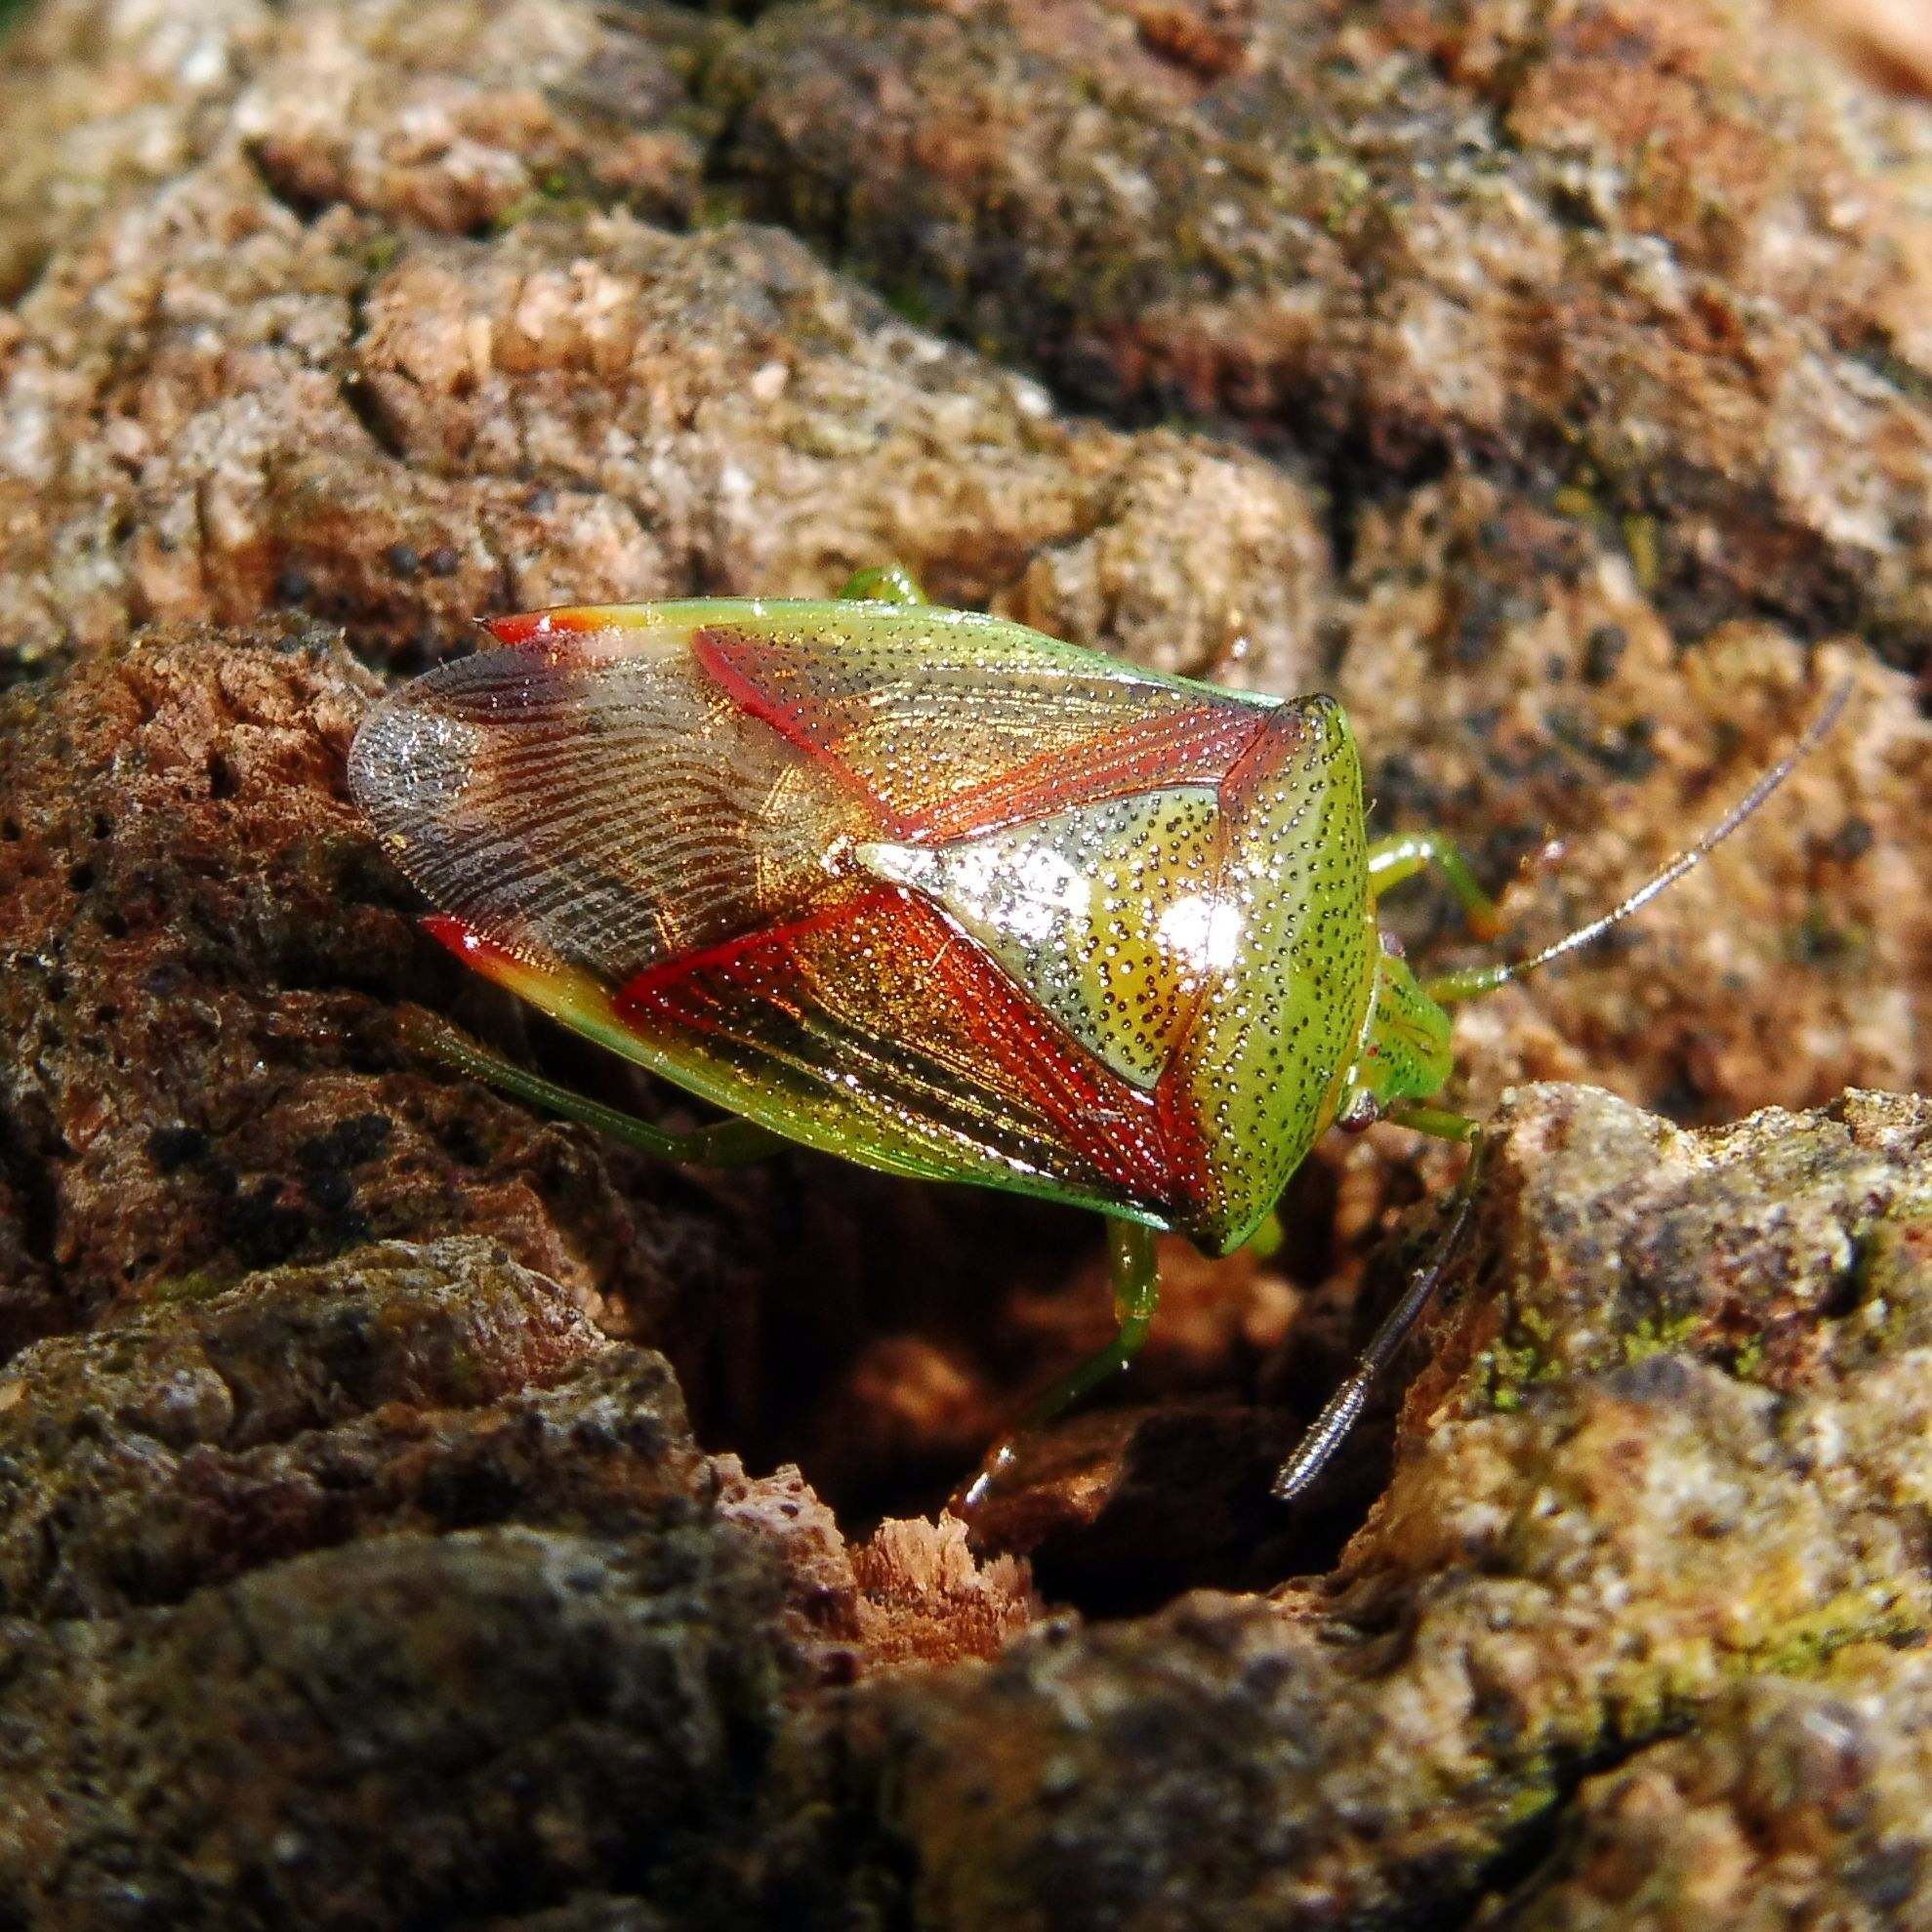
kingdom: Animalia
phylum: Arthropoda
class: Insecta
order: Hemiptera
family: Acanthosomatidae
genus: Elasmostethus
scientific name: Elasmostethus interstinctus
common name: Birch shieldbug
